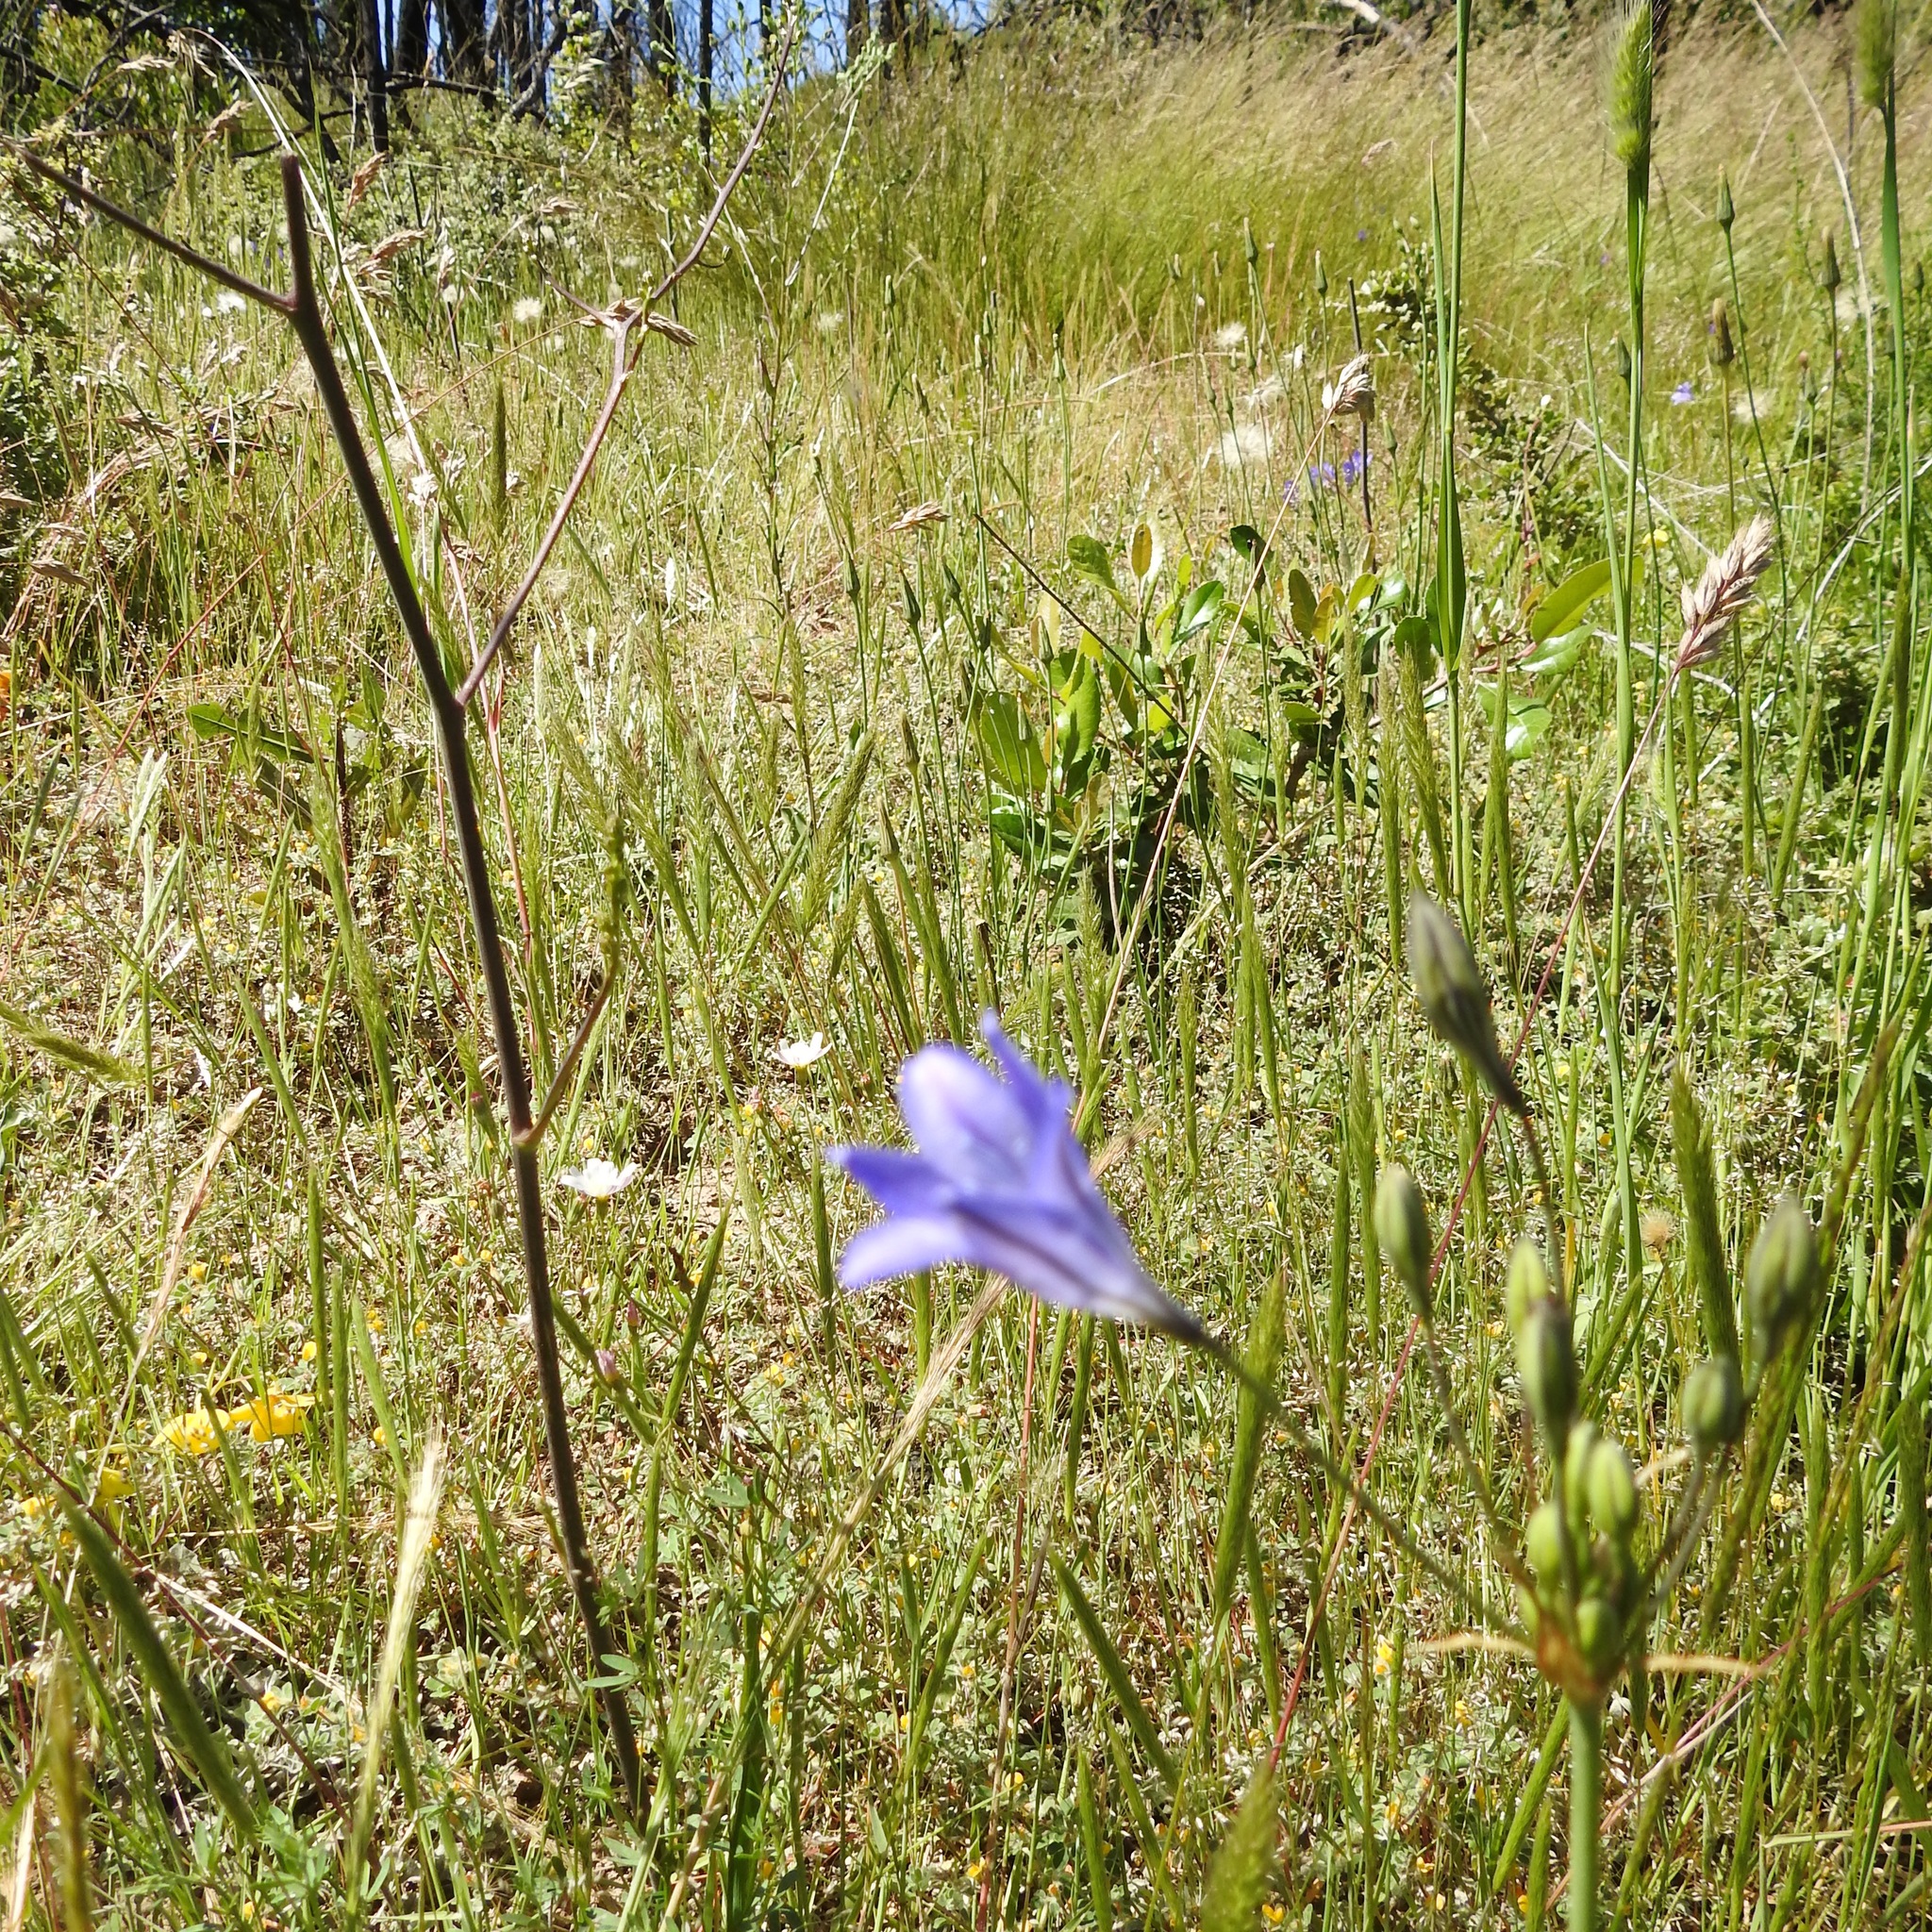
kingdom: Plantae
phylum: Tracheophyta
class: Liliopsida
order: Asparagales
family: Asparagaceae
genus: Triteleia
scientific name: Triteleia laxa
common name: Triplet-lily
